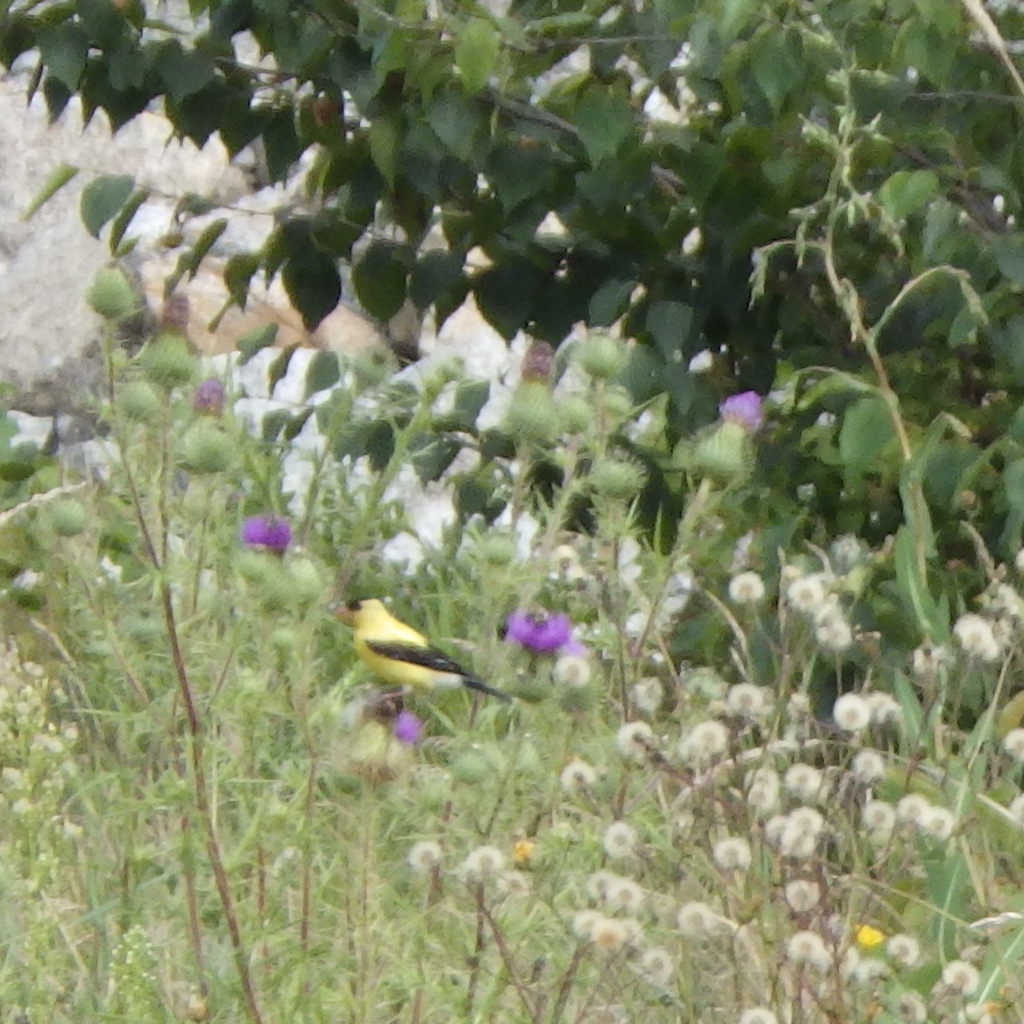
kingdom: Animalia
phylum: Chordata
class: Aves
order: Passeriformes
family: Fringillidae
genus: Spinus
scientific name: Spinus tristis
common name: American goldfinch
